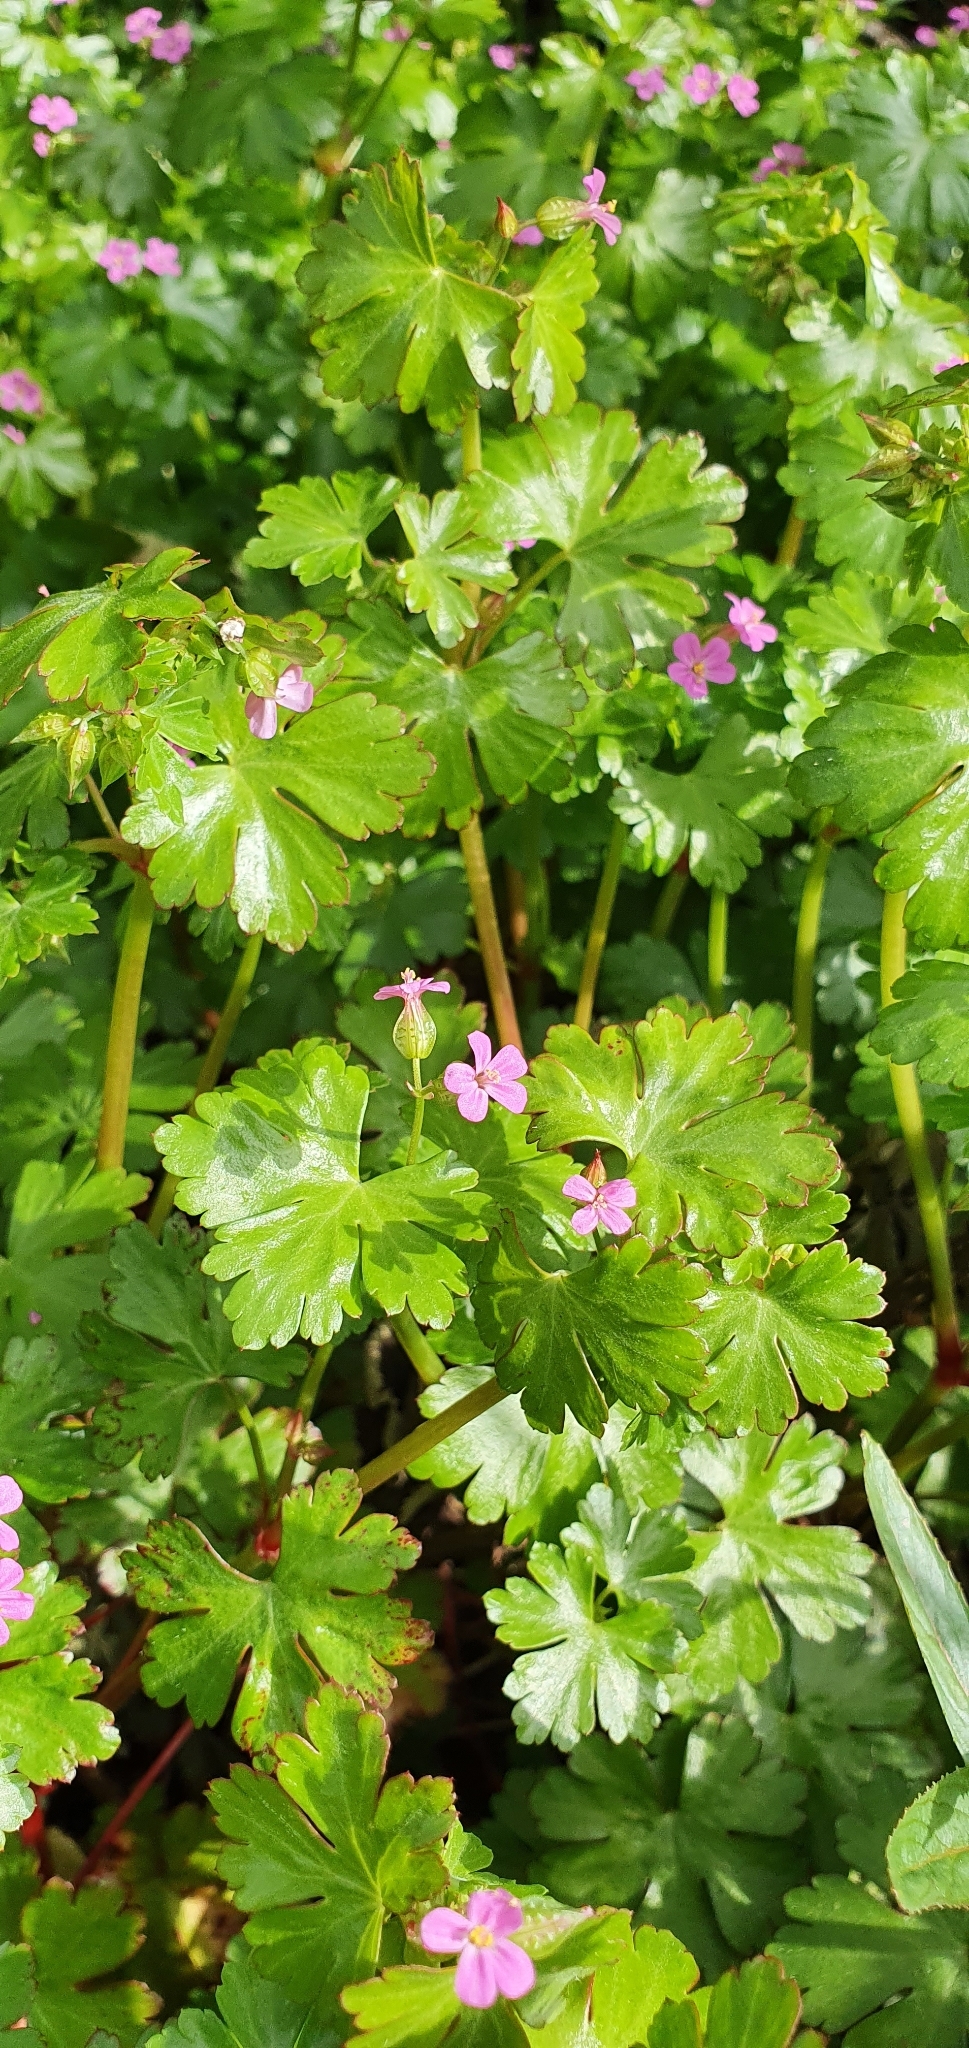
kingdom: Plantae
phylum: Tracheophyta
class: Magnoliopsida
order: Geraniales
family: Geraniaceae
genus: Geranium
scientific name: Geranium lucidum
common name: Shining crane's-bill
